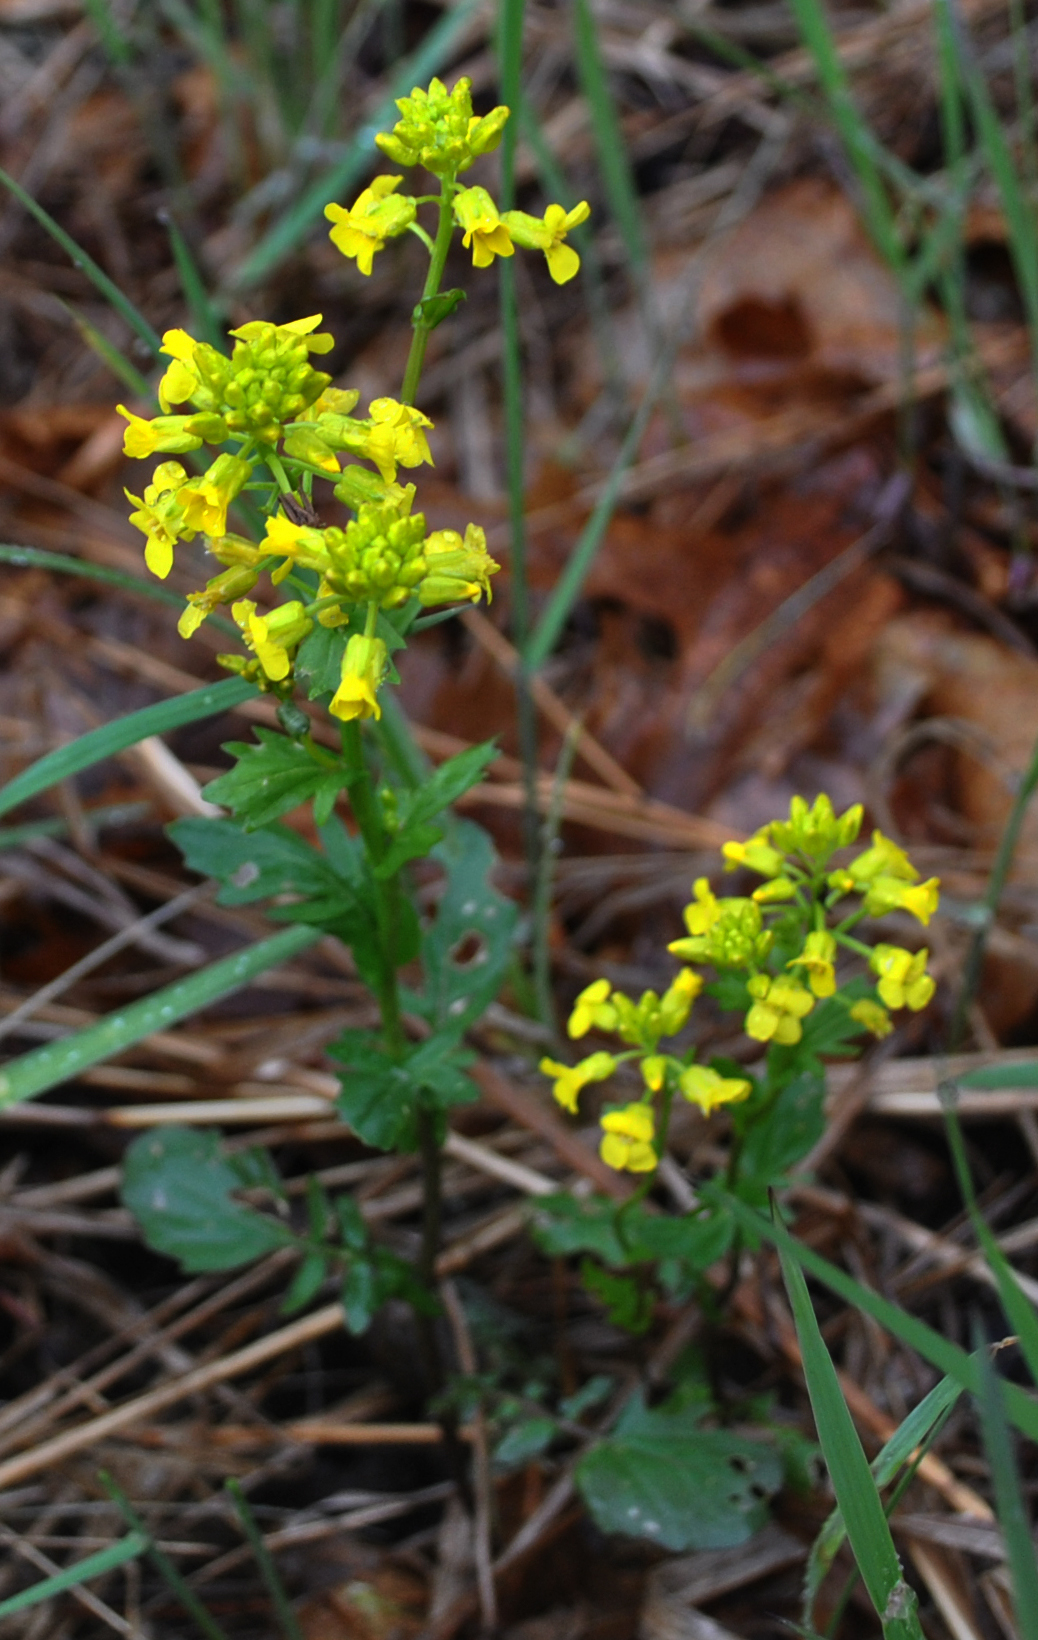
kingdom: Plantae
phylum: Tracheophyta
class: Magnoliopsida
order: Brassicales
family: Brassicaceae
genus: Barbarea
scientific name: Barbarea vulgaris
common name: Cressy-greens
